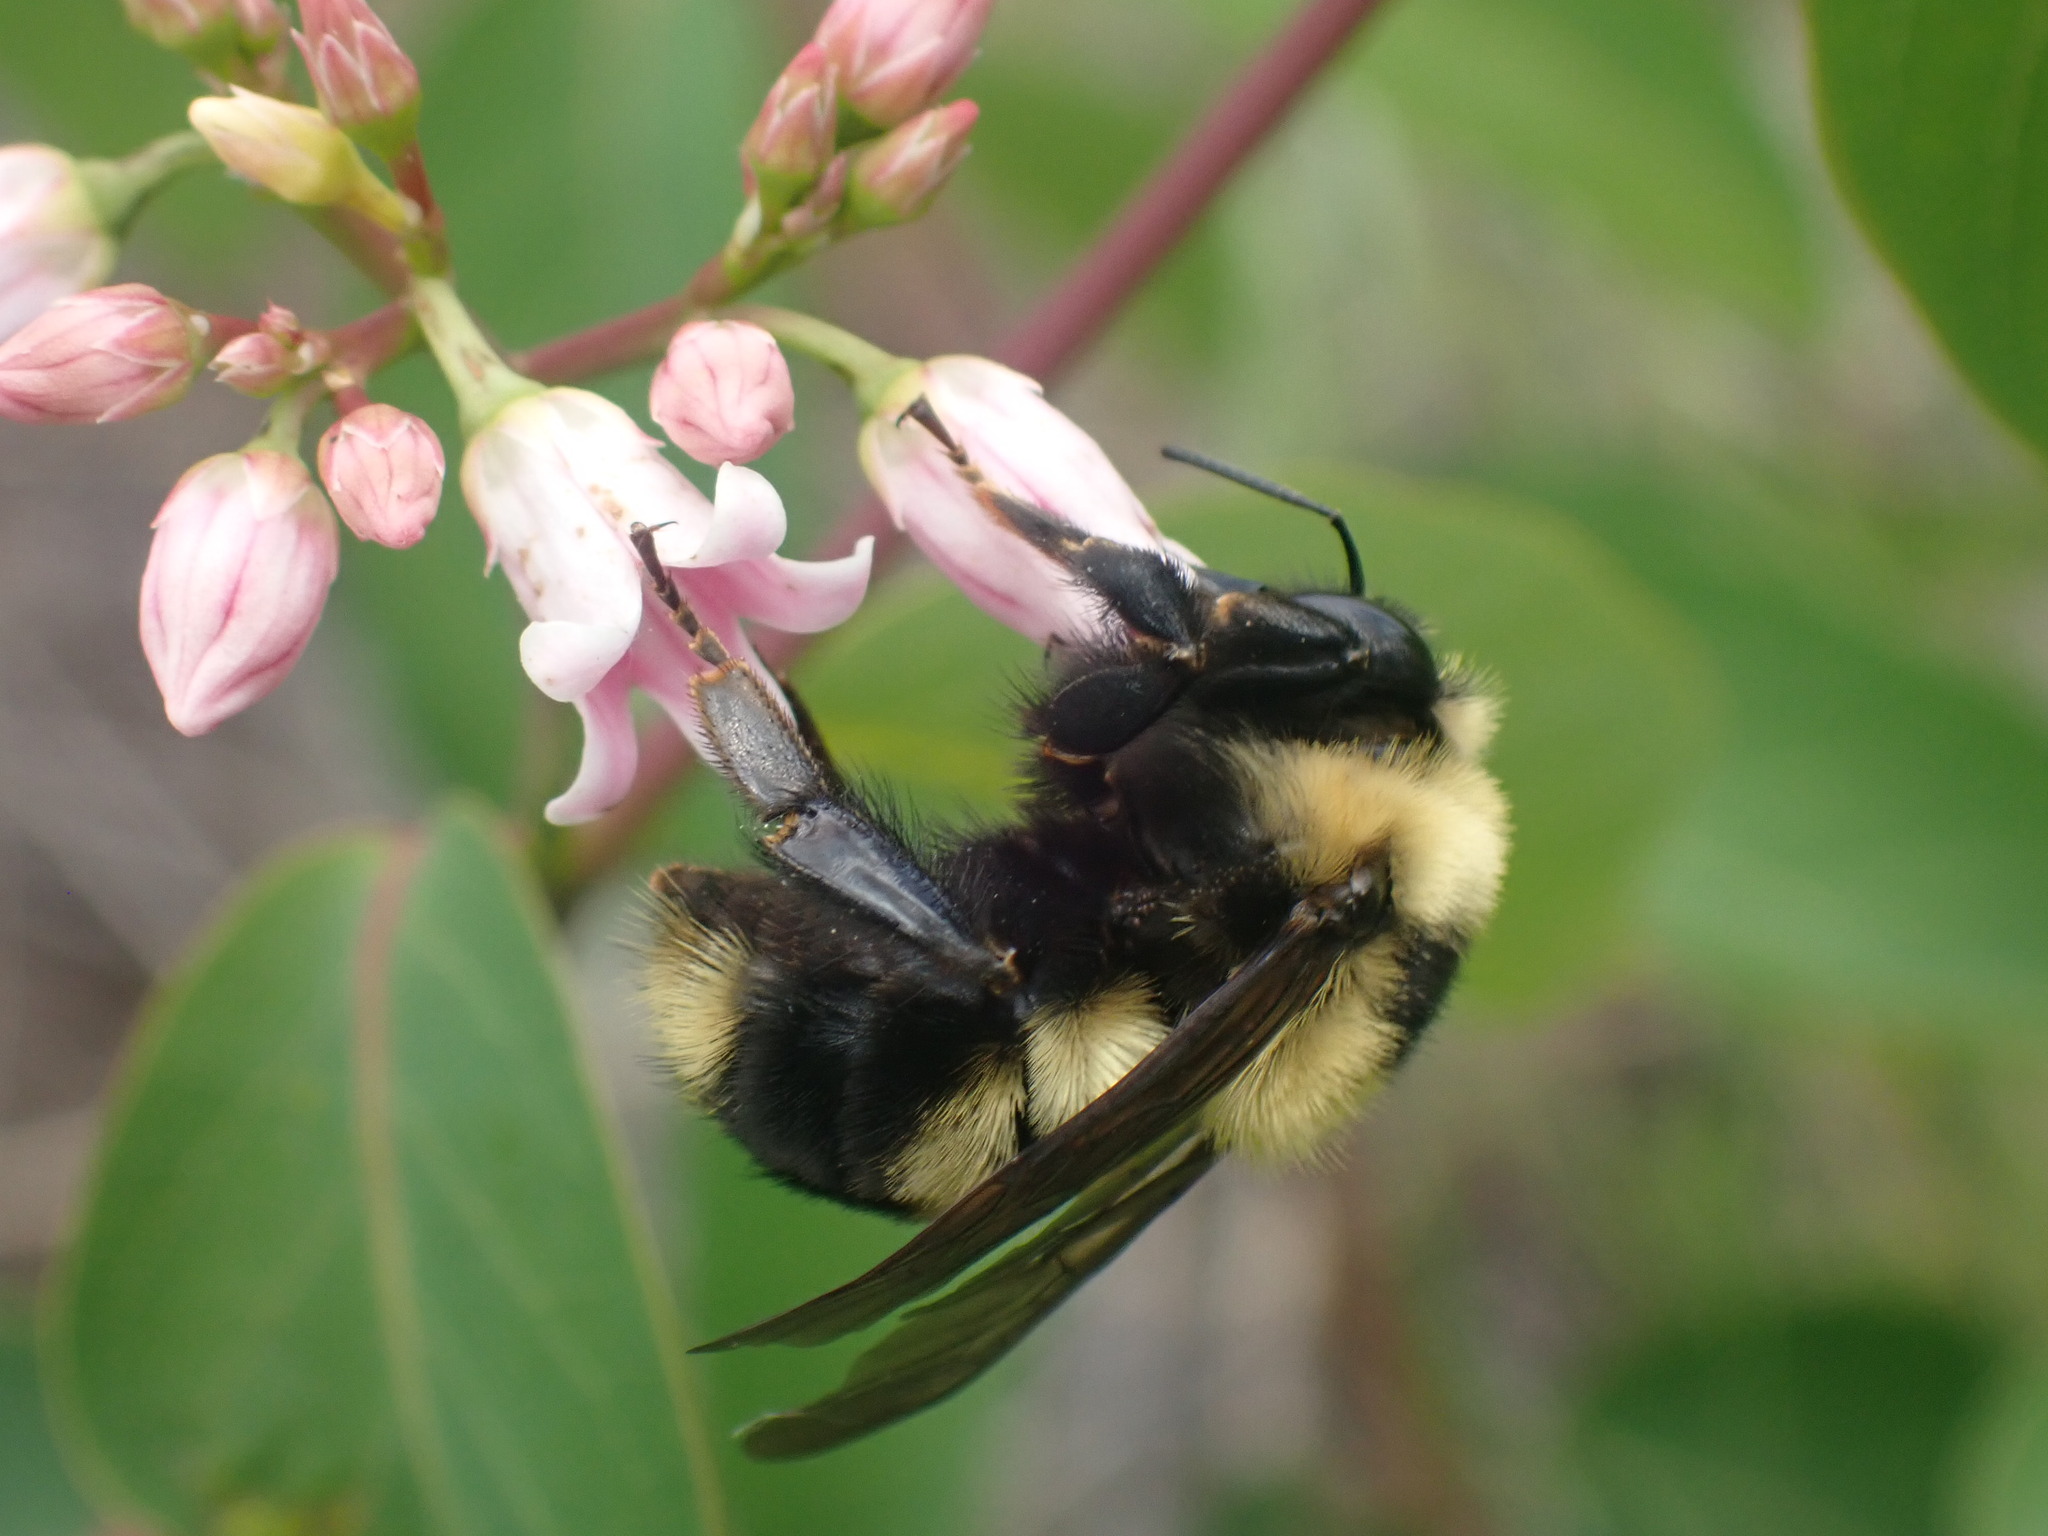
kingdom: Animalia
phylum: Arthropoda
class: Insecta
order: Hymenoptera
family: Apidae
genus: Bombus
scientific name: Bombus rufocinctus
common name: Red-belted bumble bee
